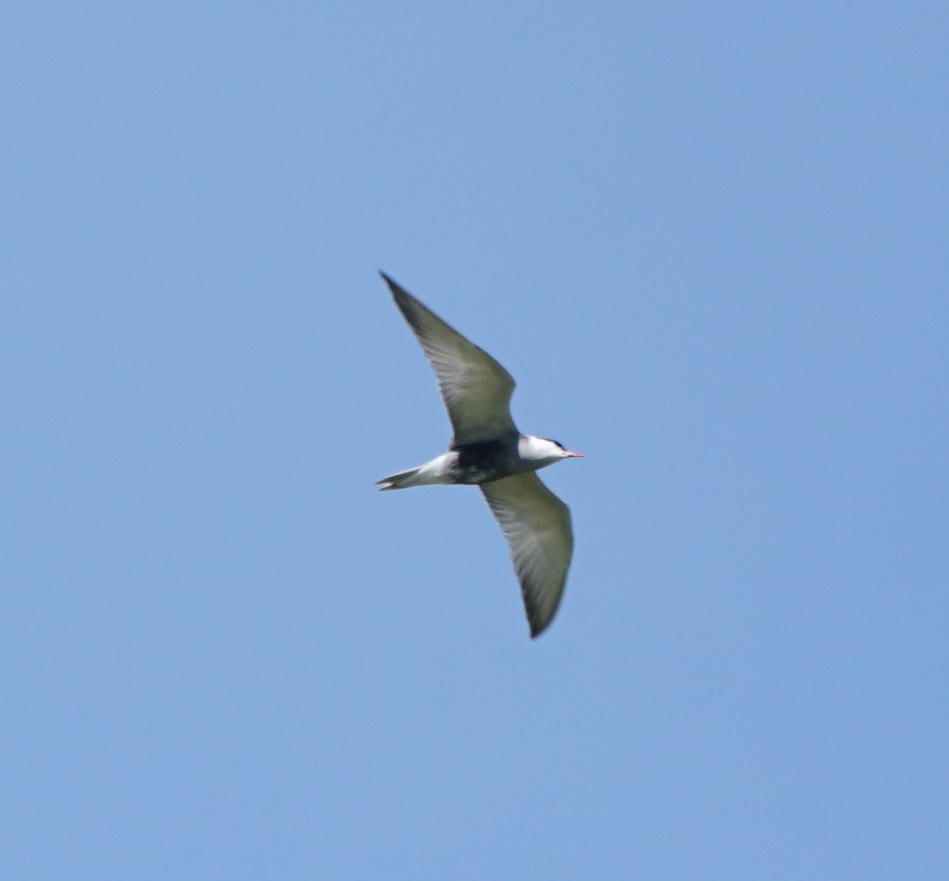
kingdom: Animalia
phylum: Chordata
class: Aves
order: Charadriiformes
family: Laridae
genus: Chlidonias
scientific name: Chlidonias hybrida
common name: Whiskered tern
